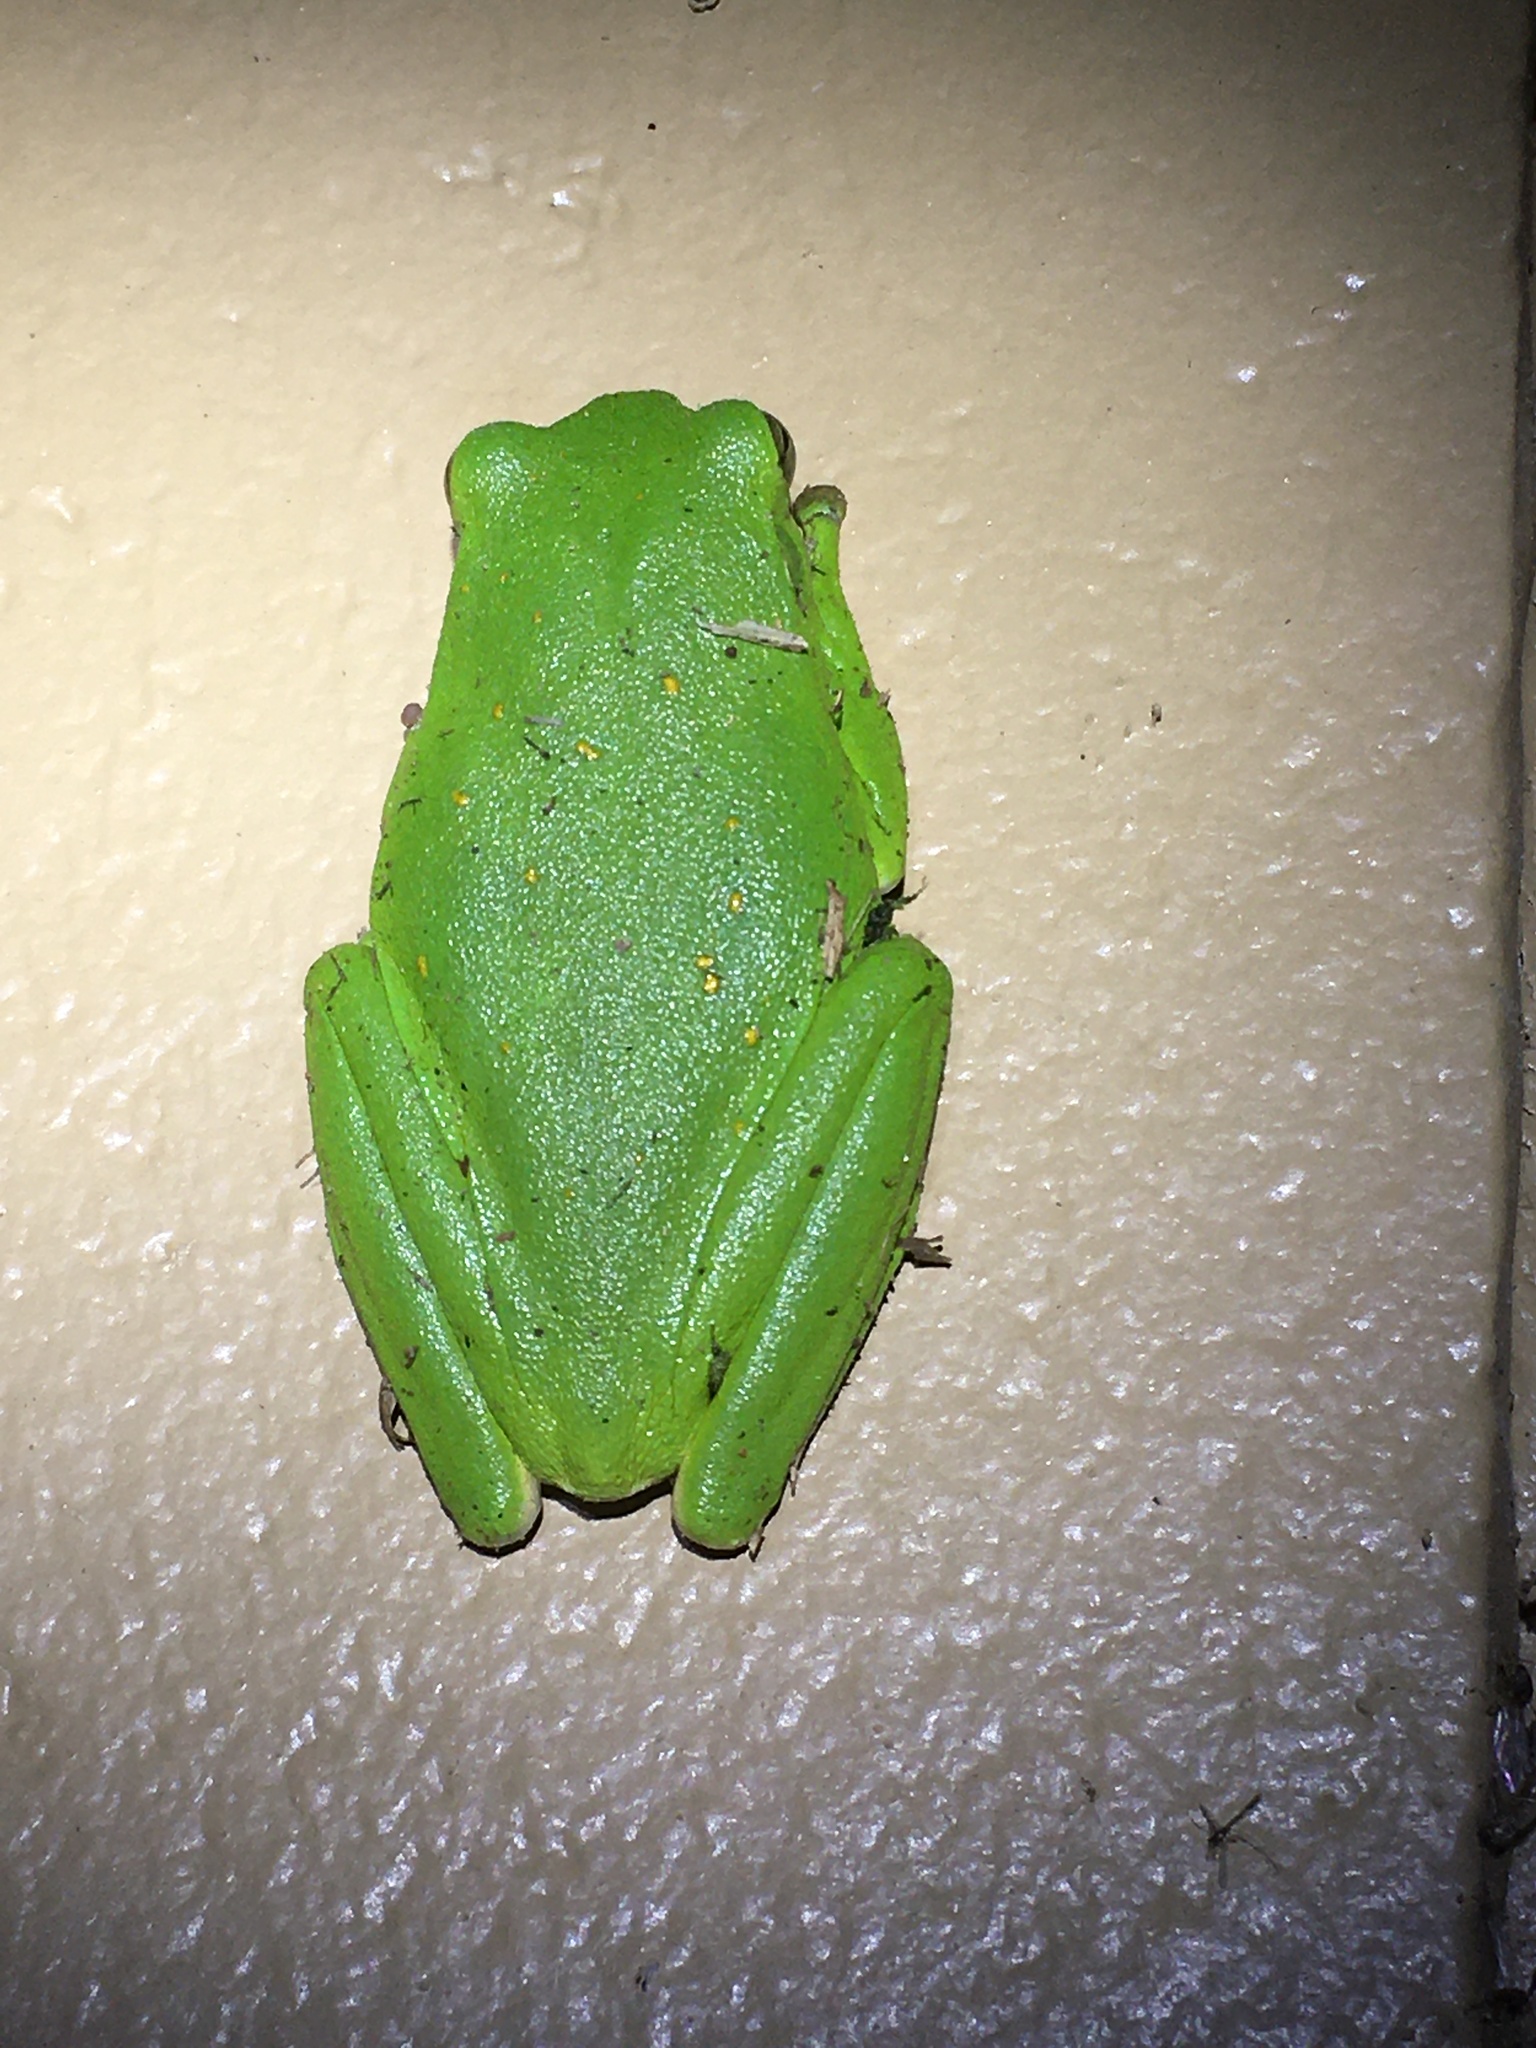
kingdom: Animalia
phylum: Chordata
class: Amphibia
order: Anura
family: Hylidae
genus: Dryophytes
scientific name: Dryophytes cinereus
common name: Green treefrog
